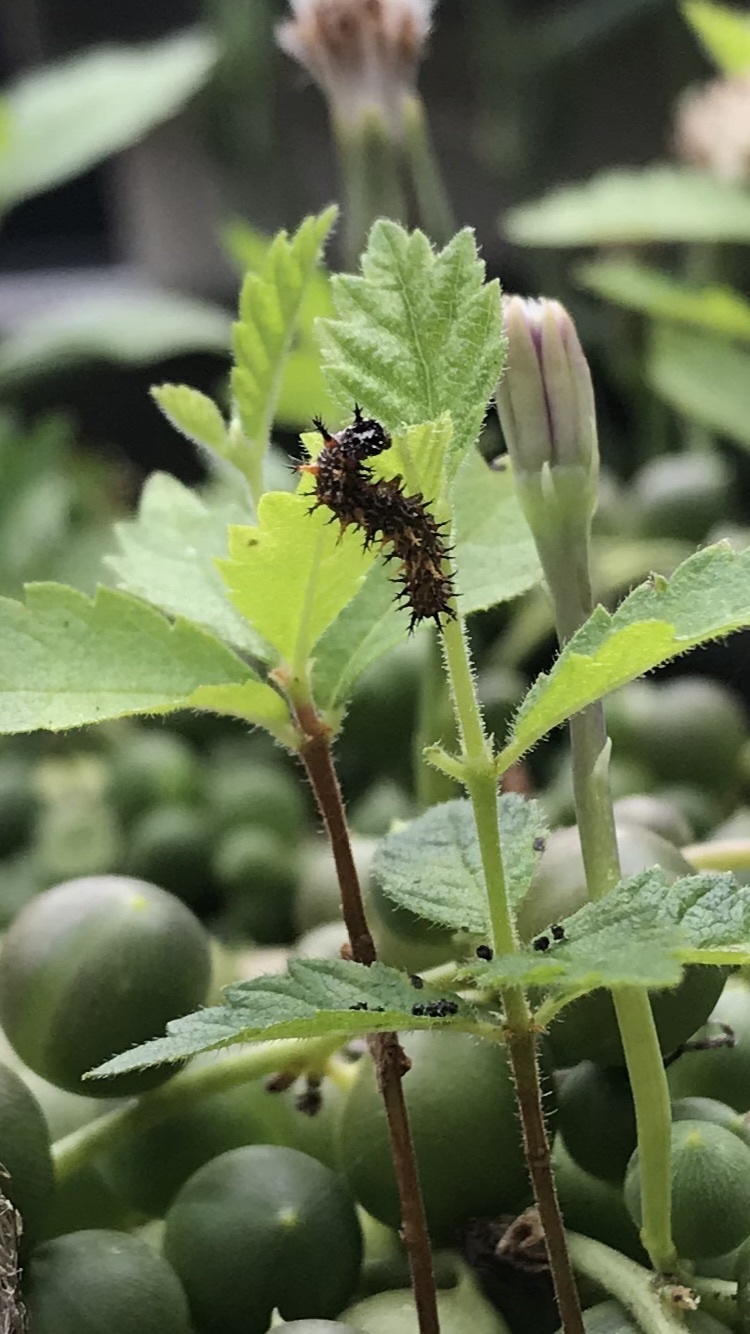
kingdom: Animalia
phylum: Arthropoda
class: Insecta
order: Lepidoptera
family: Nymphalidae
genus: Polygonia
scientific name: Polygonia interrogationis
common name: Question mark
